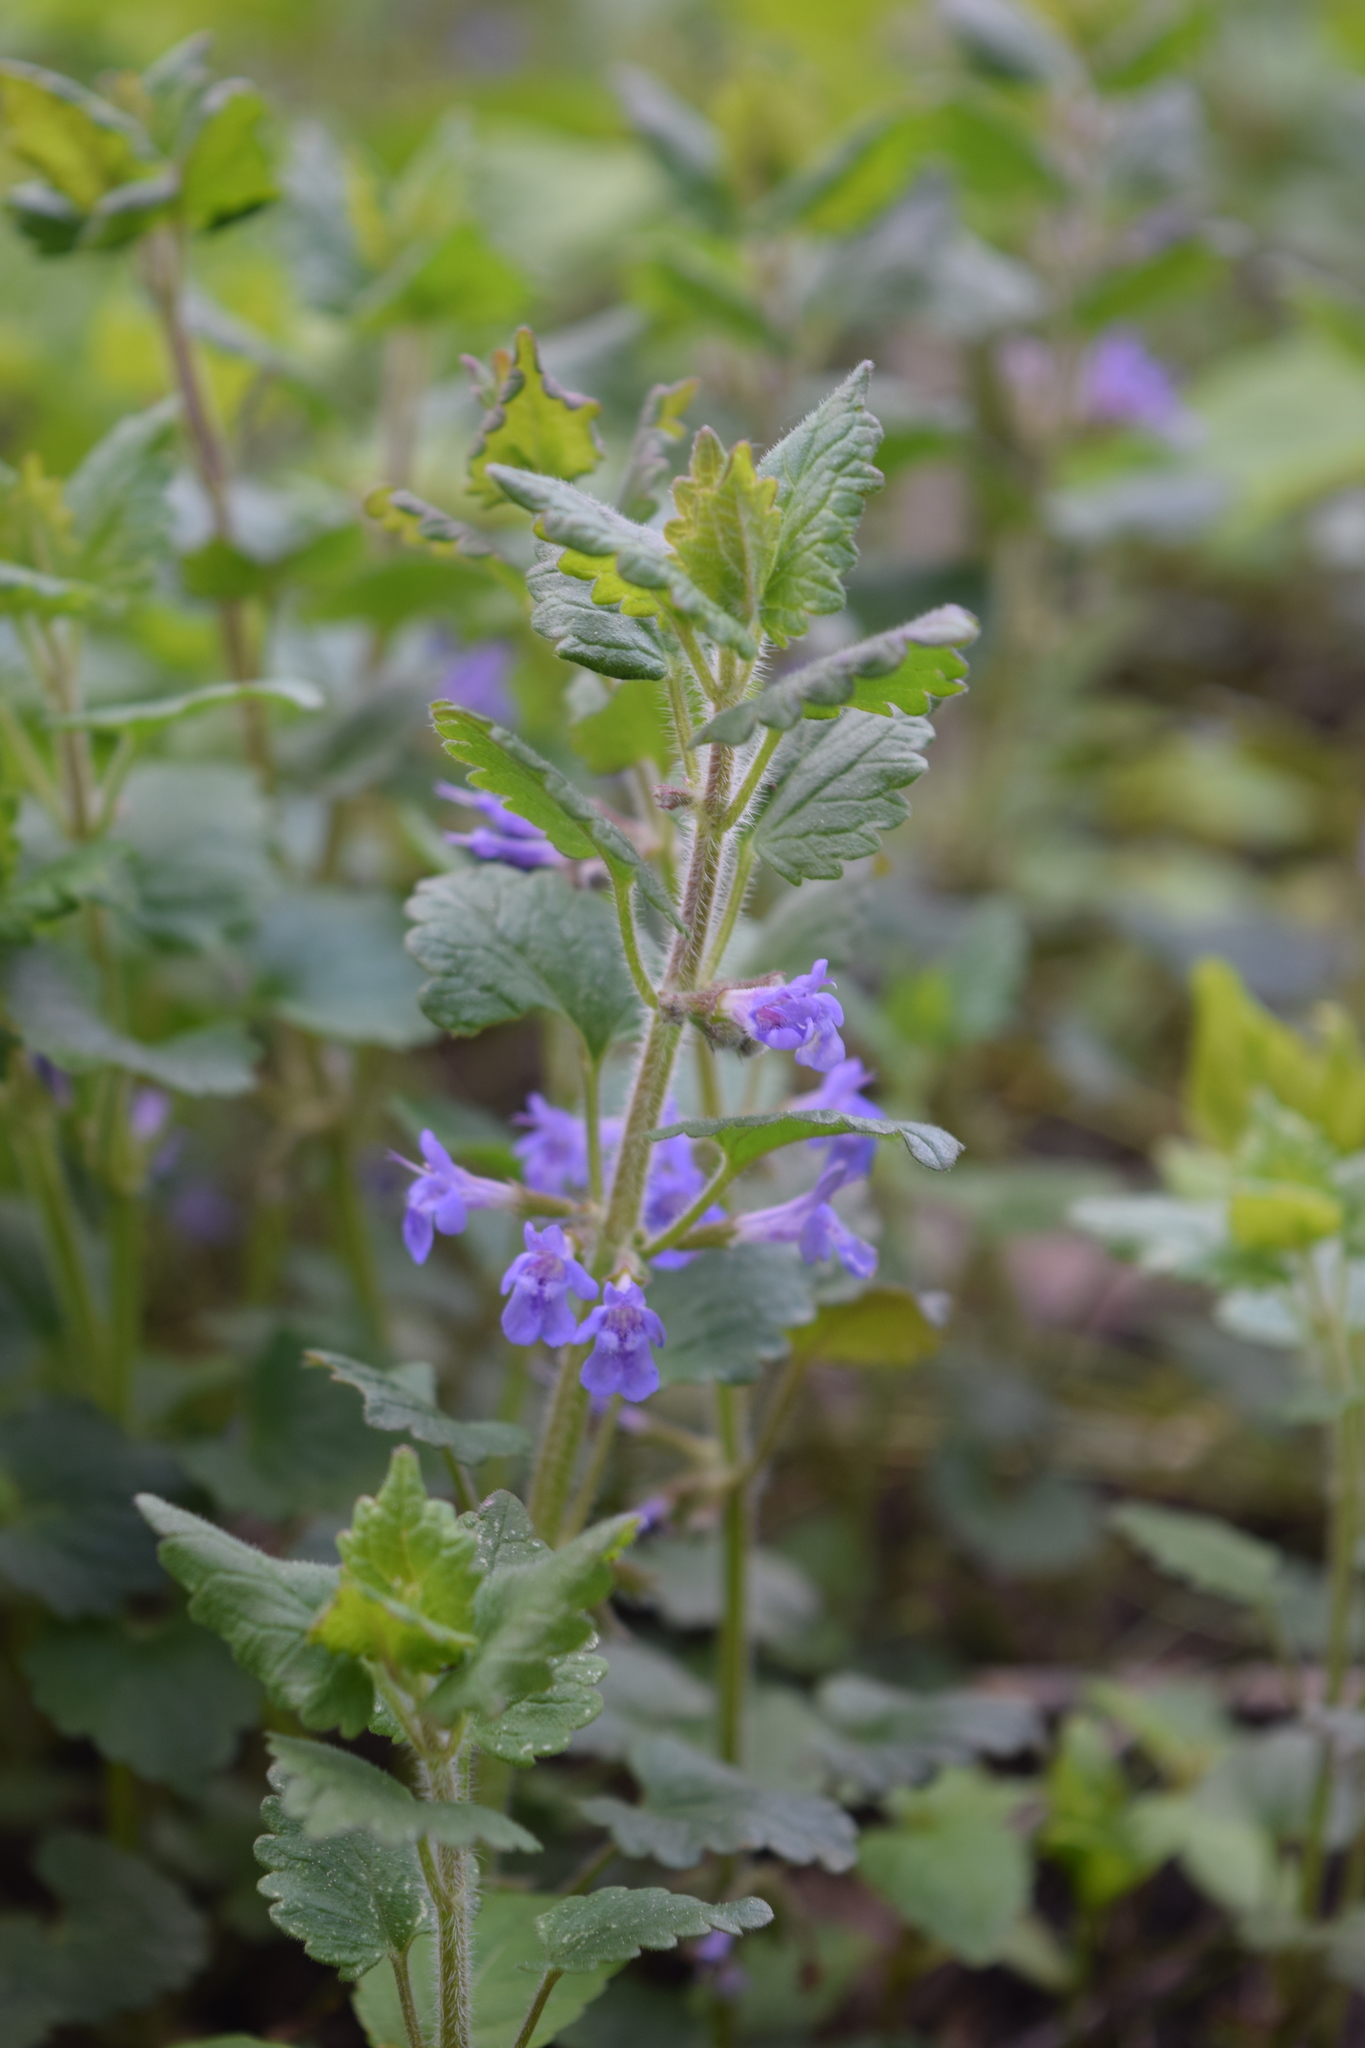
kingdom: Plantae
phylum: Tracheophyta
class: Magnoliopsida
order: Lamiales
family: Lamiaceae
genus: Glechoma
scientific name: Glechoma hederacea
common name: Ground ivy
